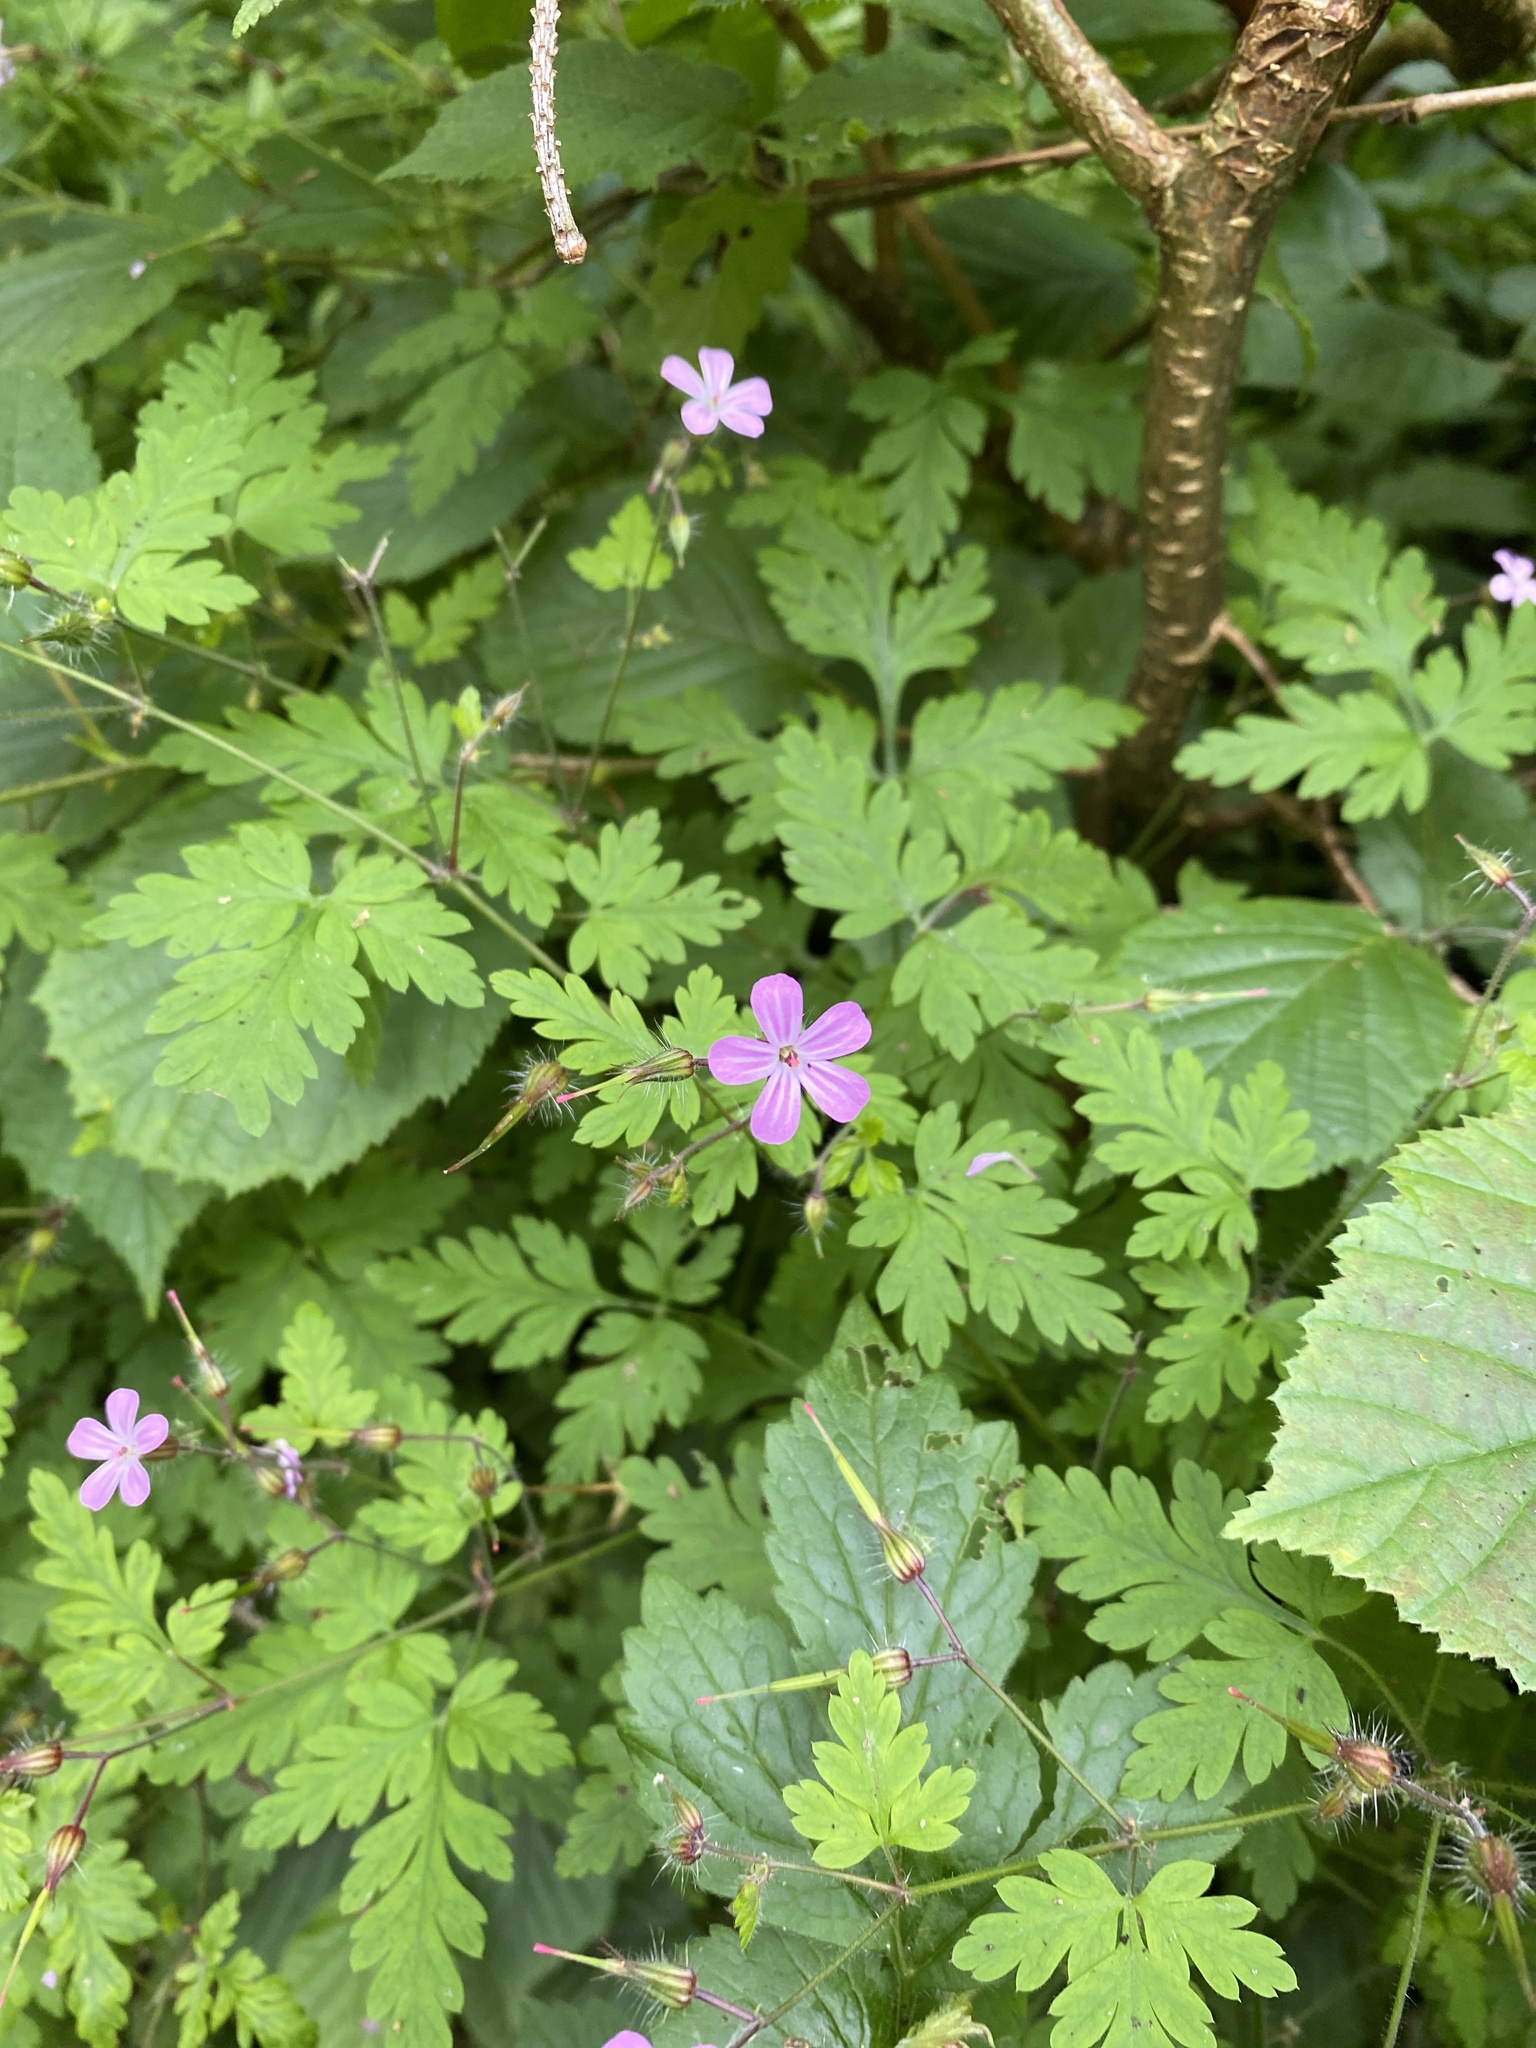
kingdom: Plantae
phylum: Tracheophyta
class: Magnoliopsida
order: Geraniales
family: Geraniaceae
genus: Geranium
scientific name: Geranium robertianum
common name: Herb-robert
